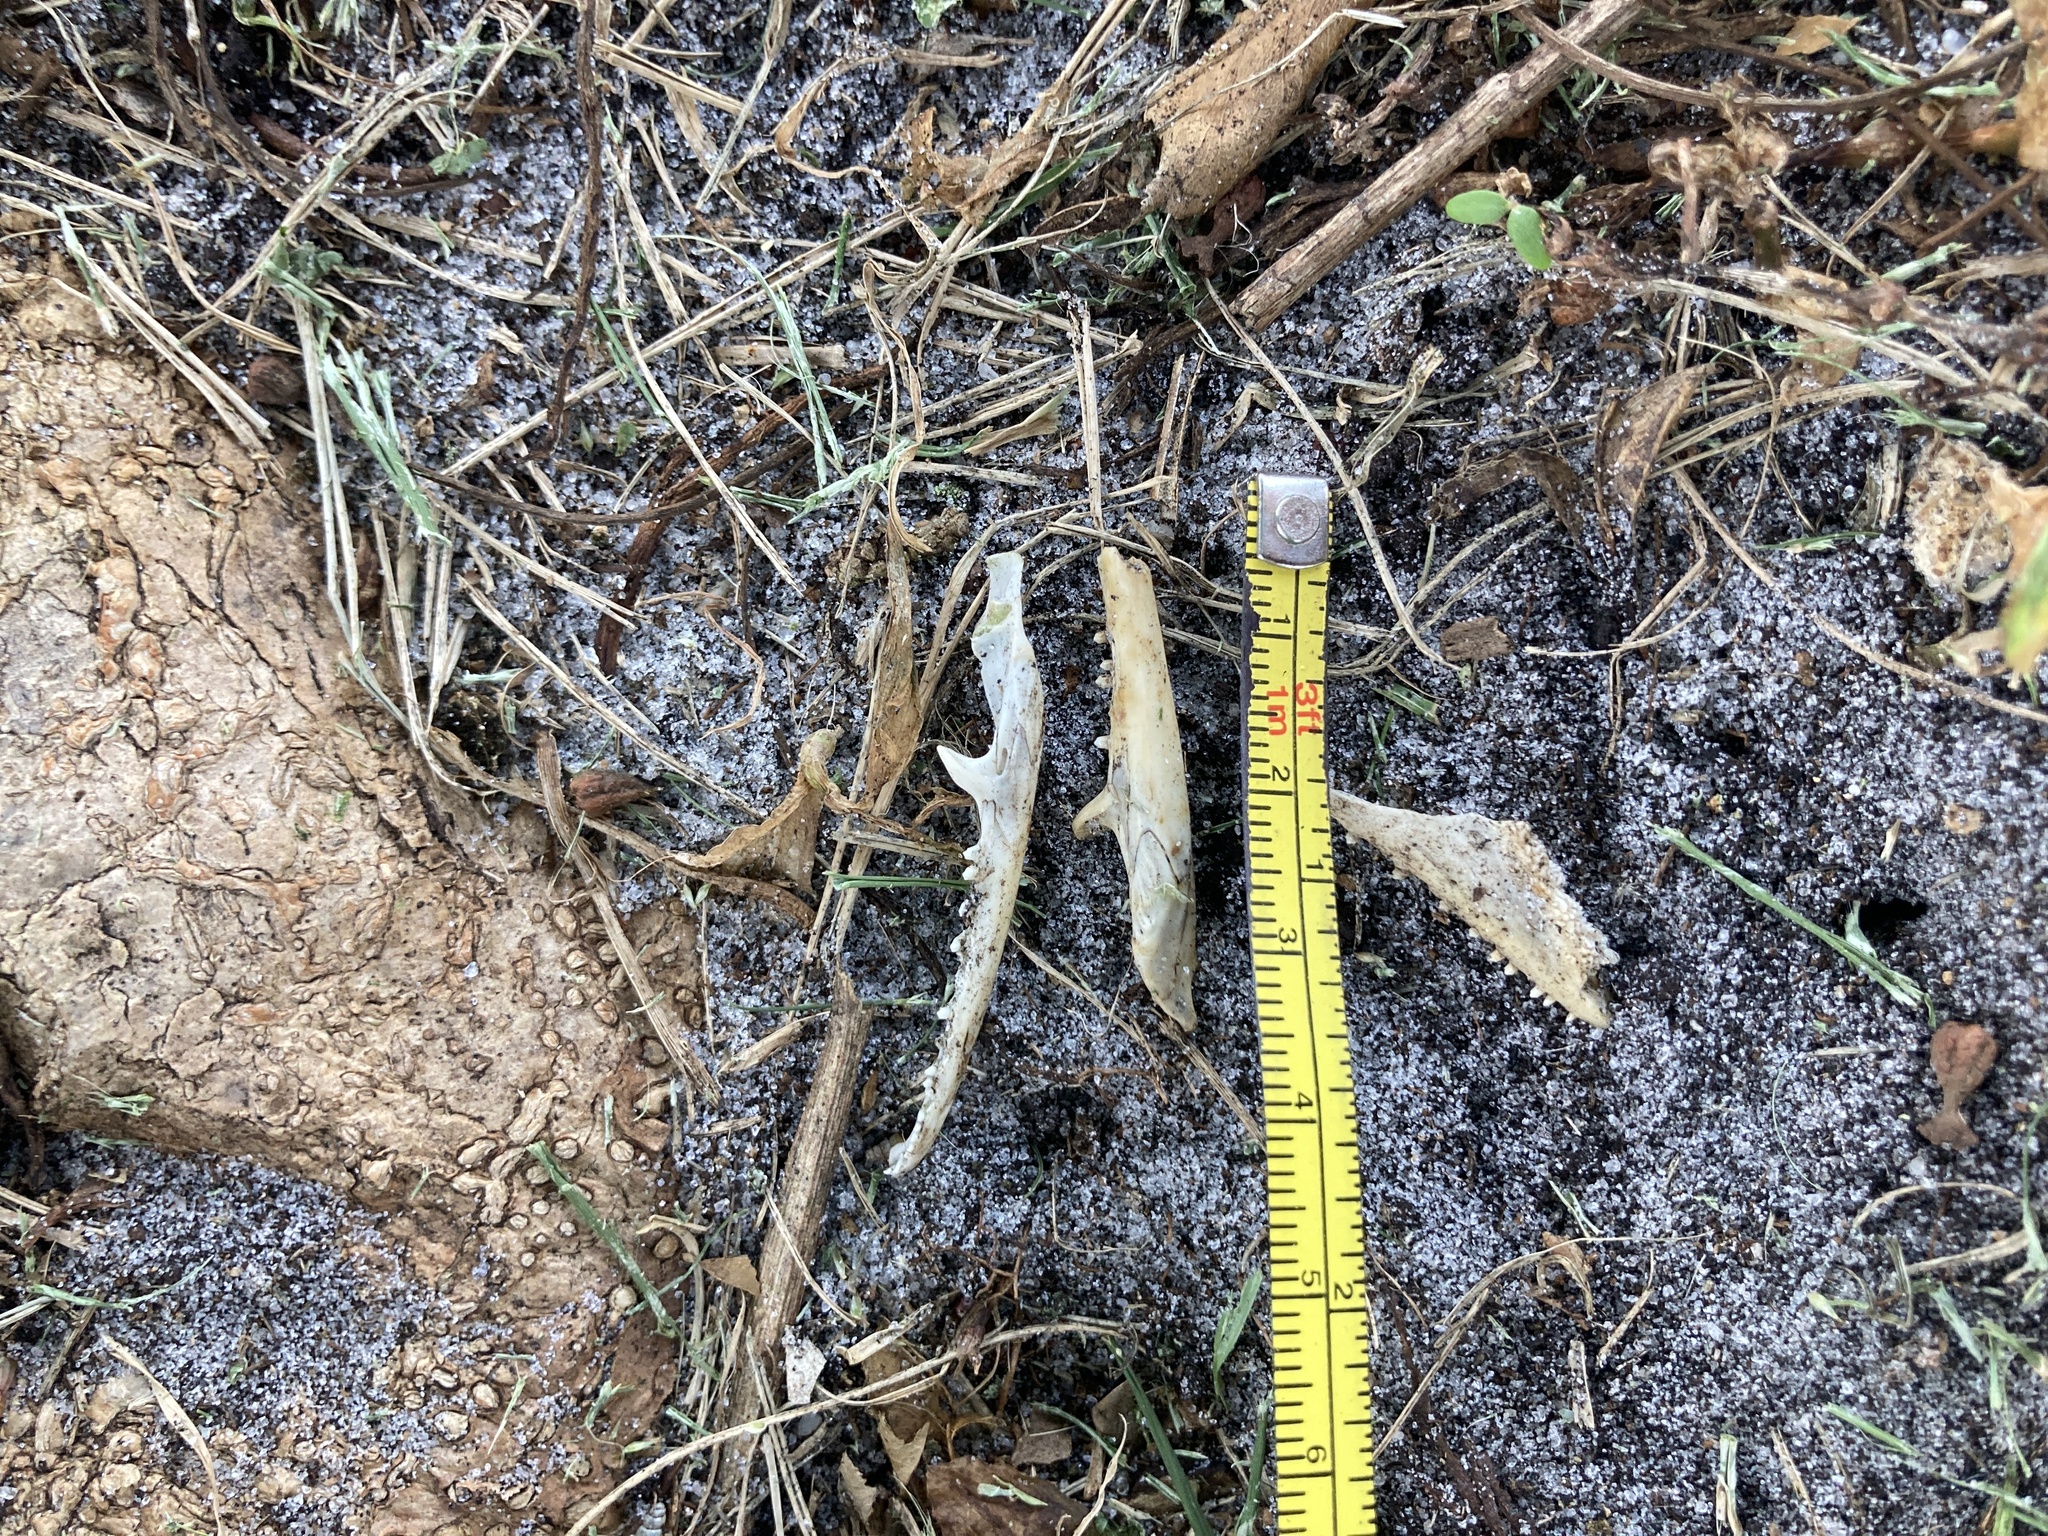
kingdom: Animalia
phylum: Chordata
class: Squamata
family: Dactyloidae
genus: Anolis
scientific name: Anolis equestris
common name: Knight anole
